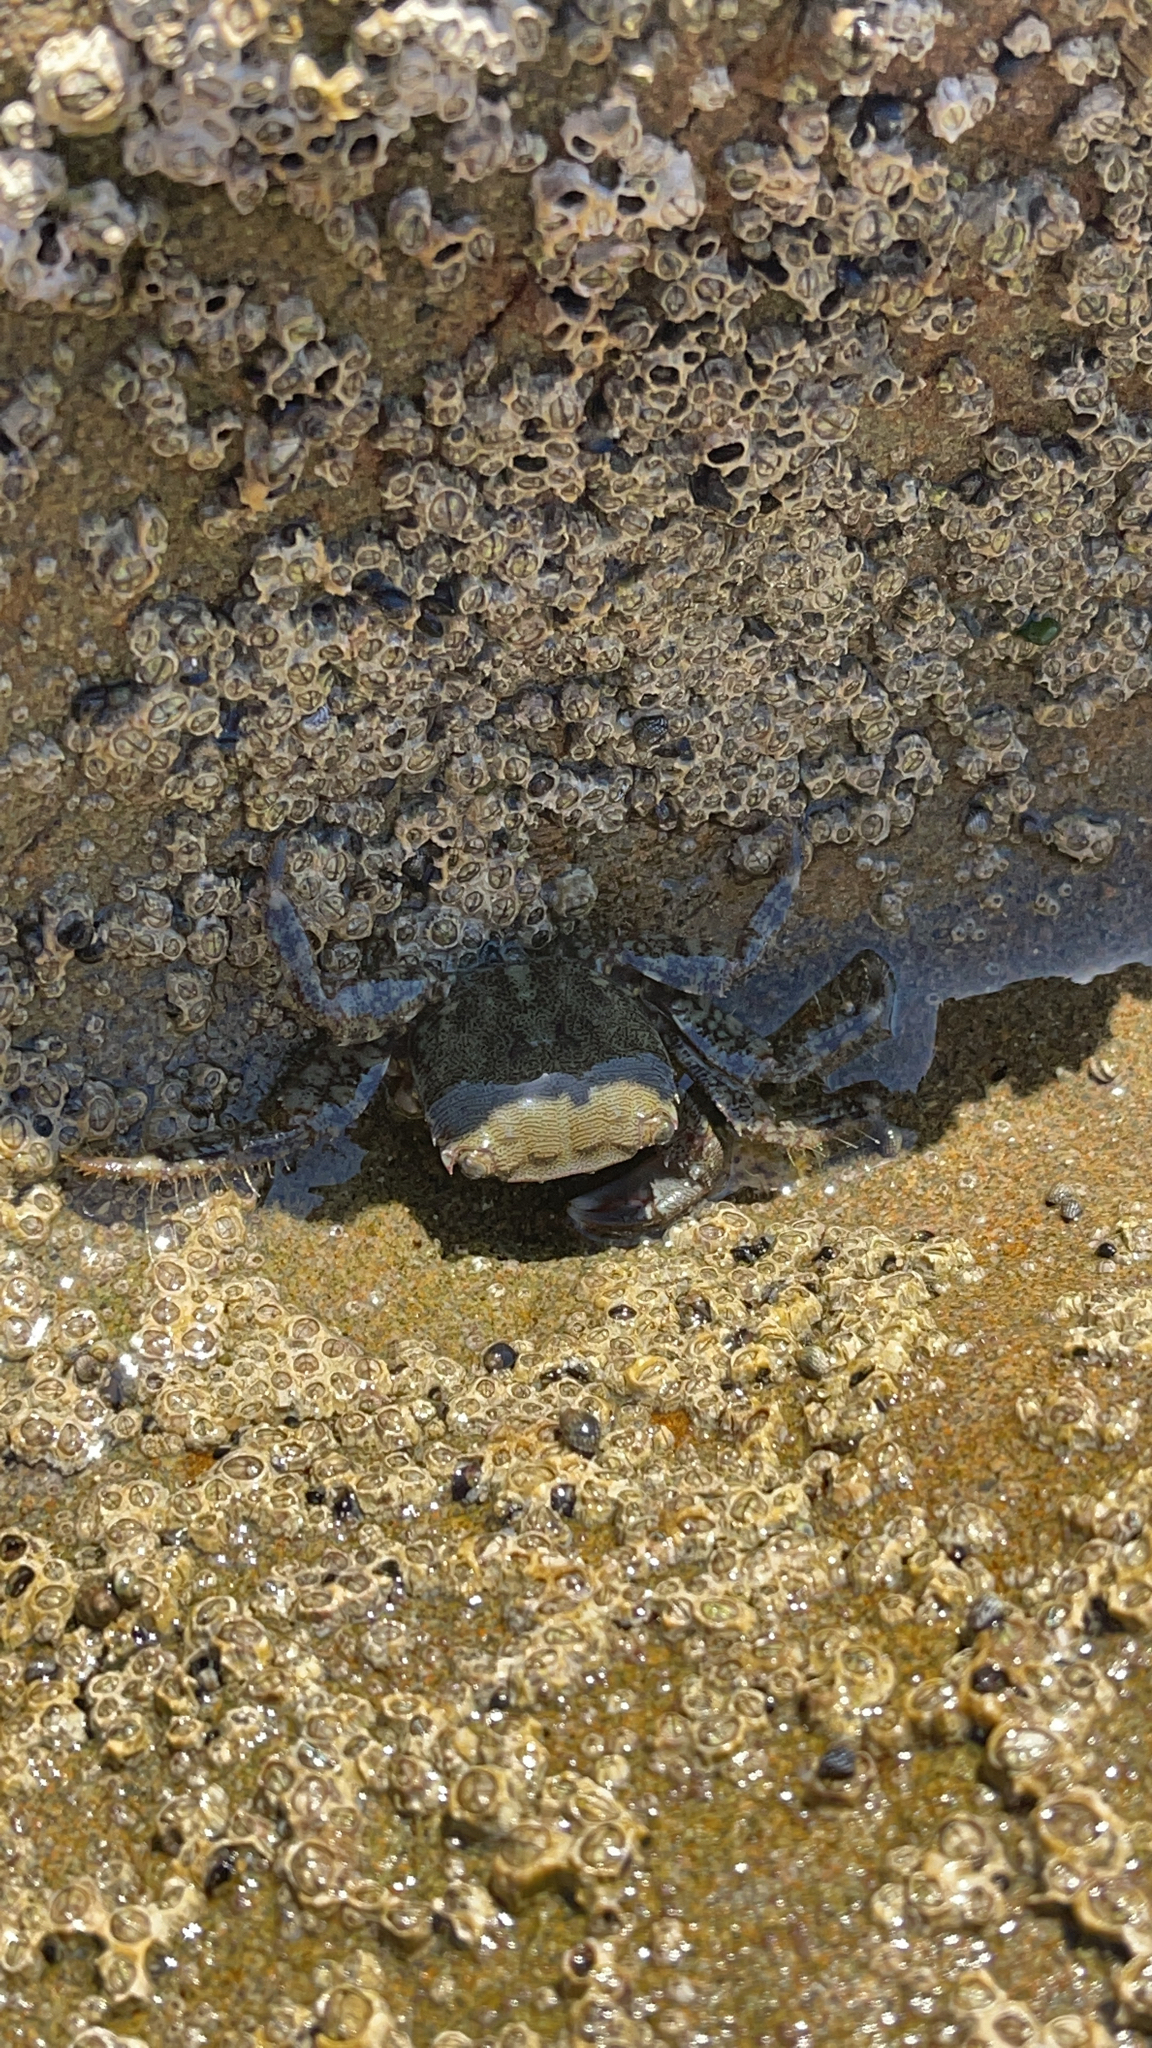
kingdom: Animalia
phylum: Arthropoda
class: Malacostraca
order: Decapoda
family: Grapsidae
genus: Pachygrapsus
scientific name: Pachygrapsus marmoratus
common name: Marbled rock crab
